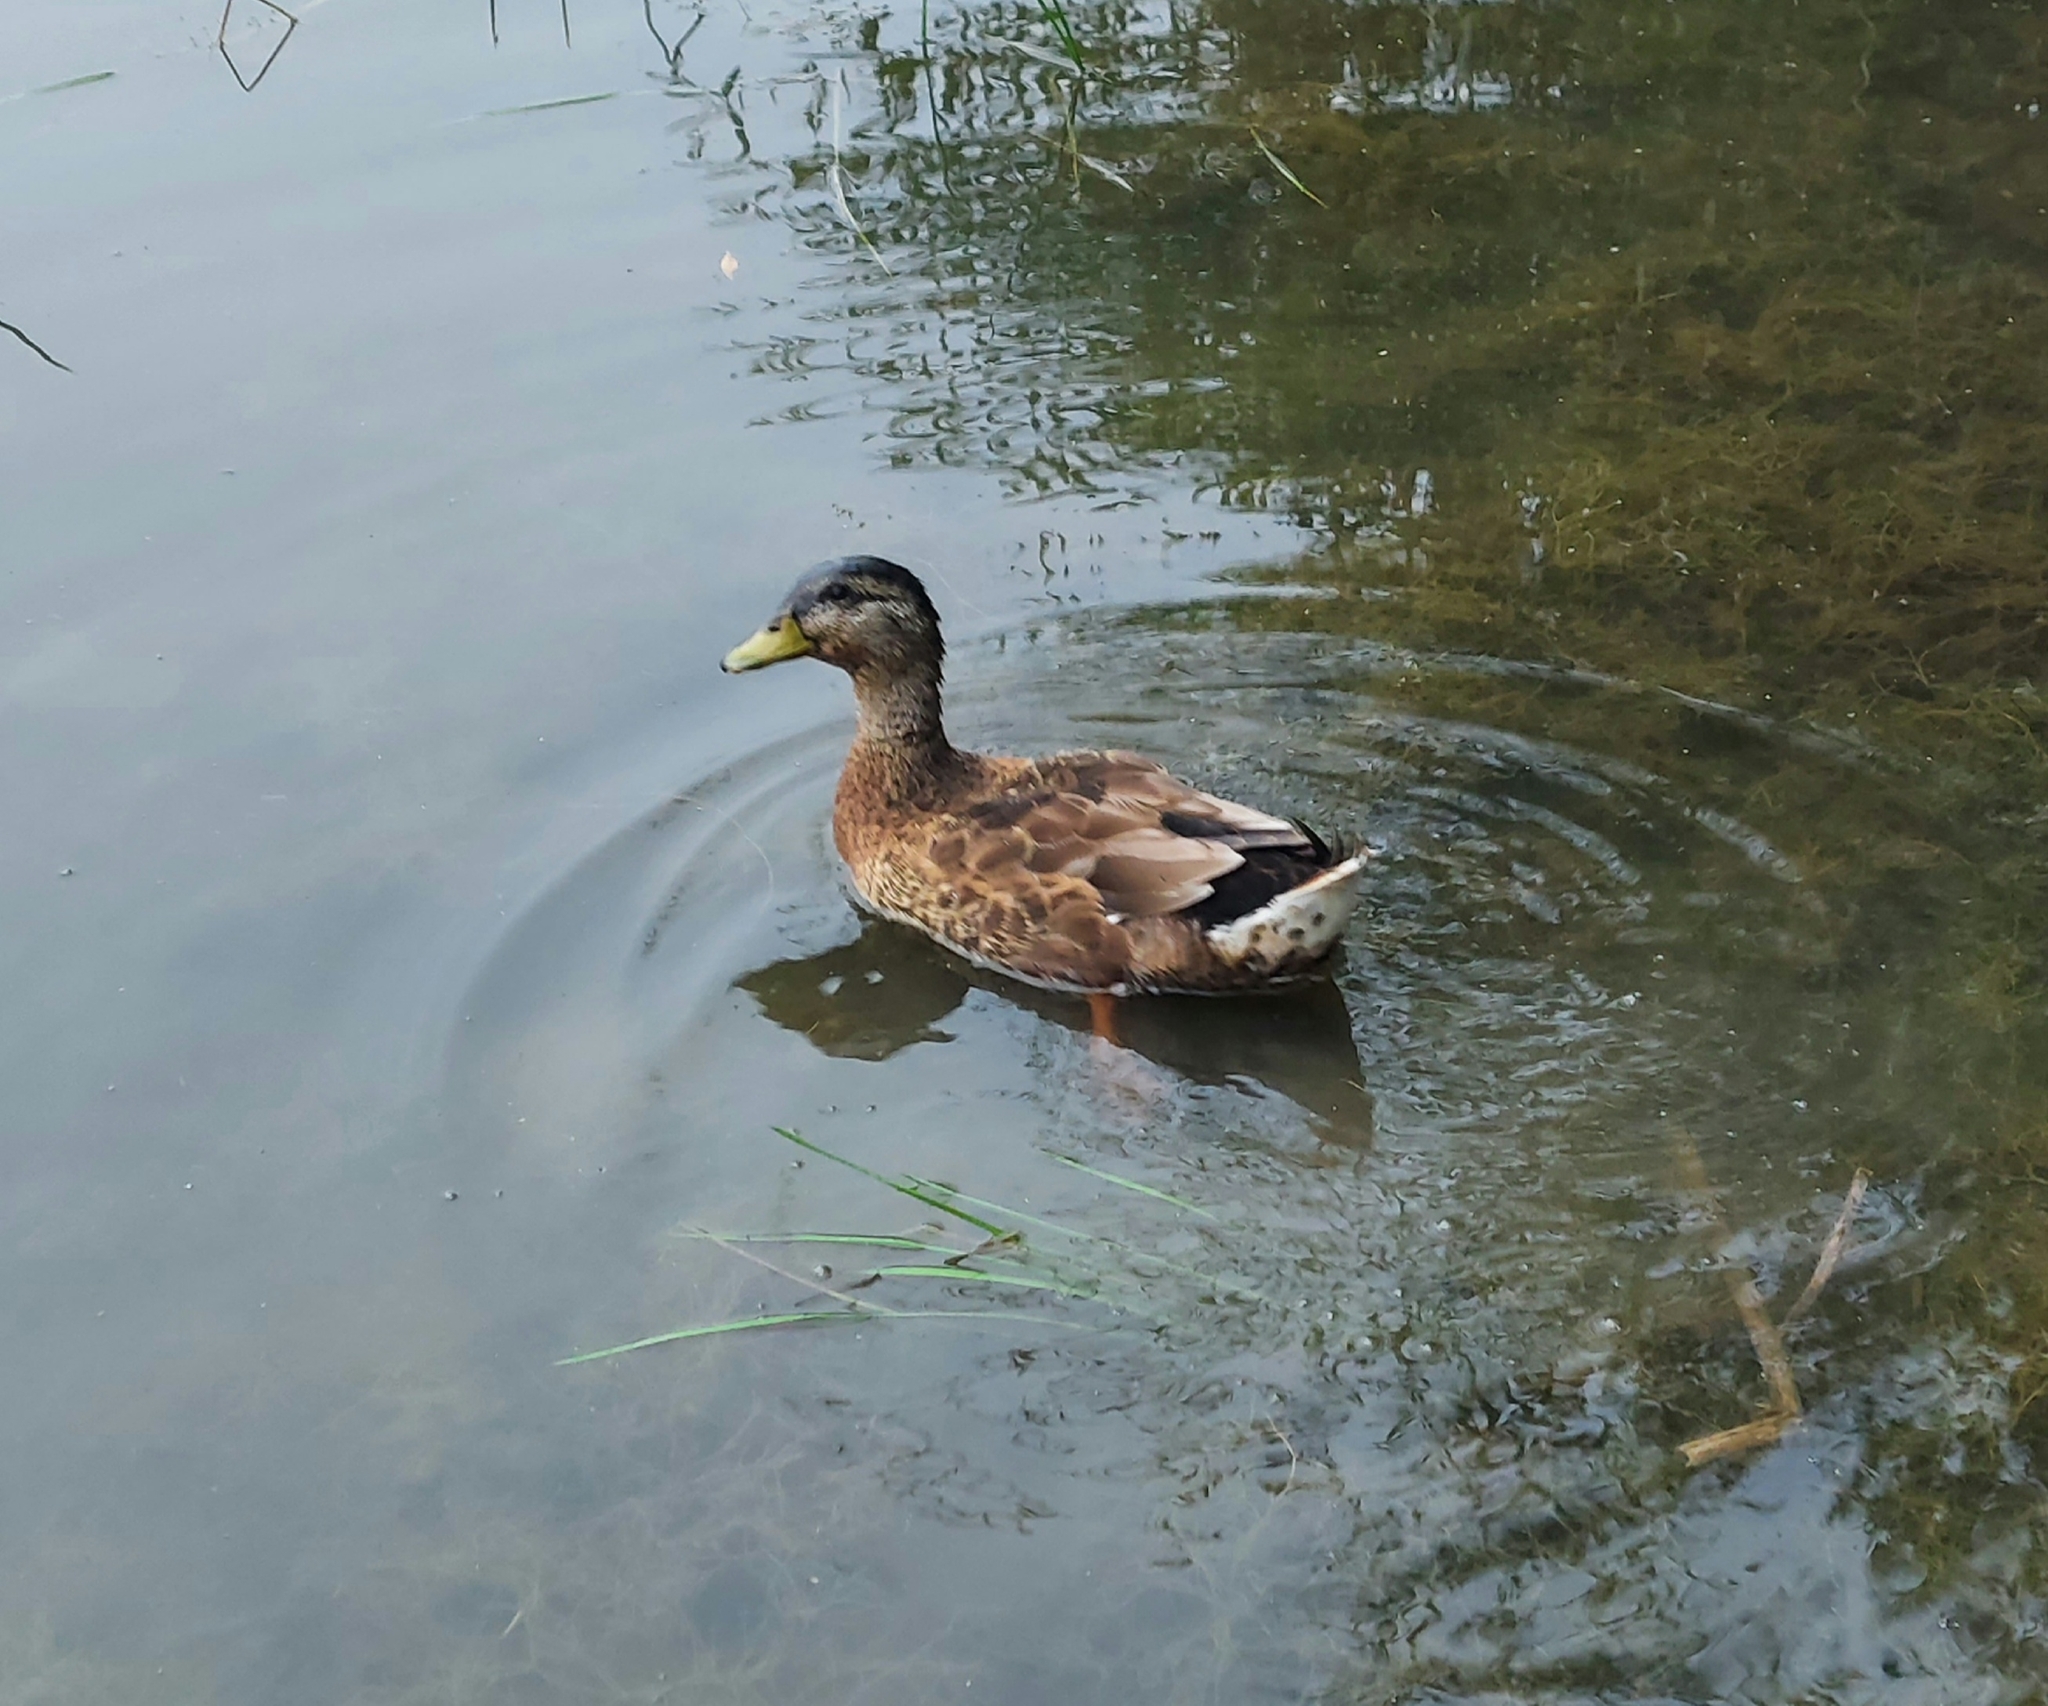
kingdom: Animalia
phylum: Chordata
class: Aves
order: Anseriformes
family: Anatidae
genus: Anas
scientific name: Anas platyrhynchos
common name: Mallard
